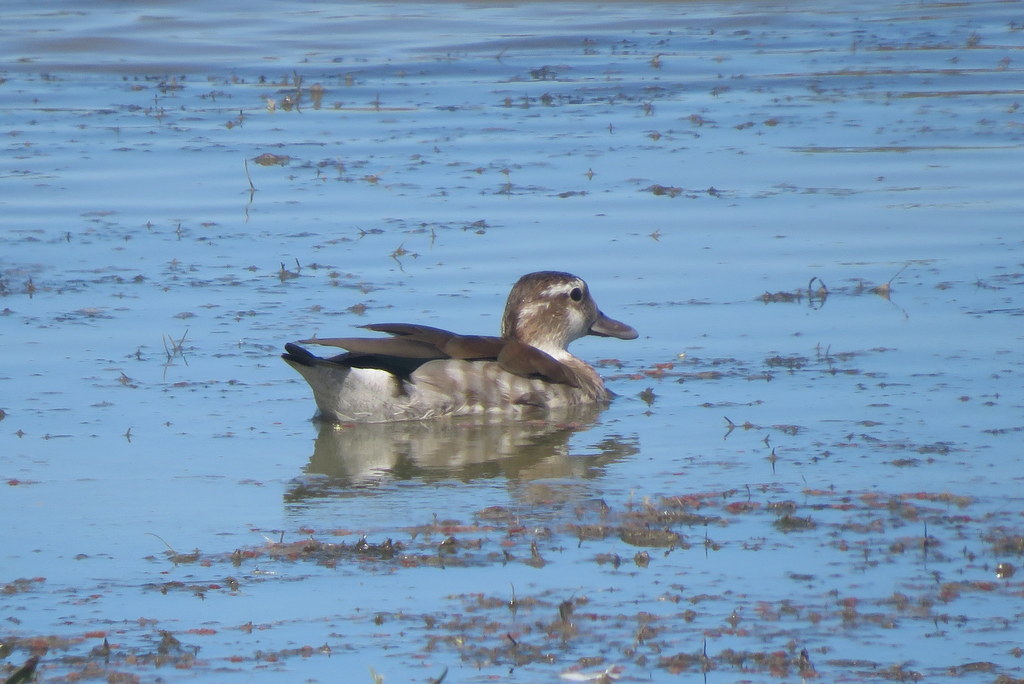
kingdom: Animalia
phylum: Chordata
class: Aves
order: Anseriformes
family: Anatidae
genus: Callonetta
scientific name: Callonetta leucophrys
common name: Ringed teal
